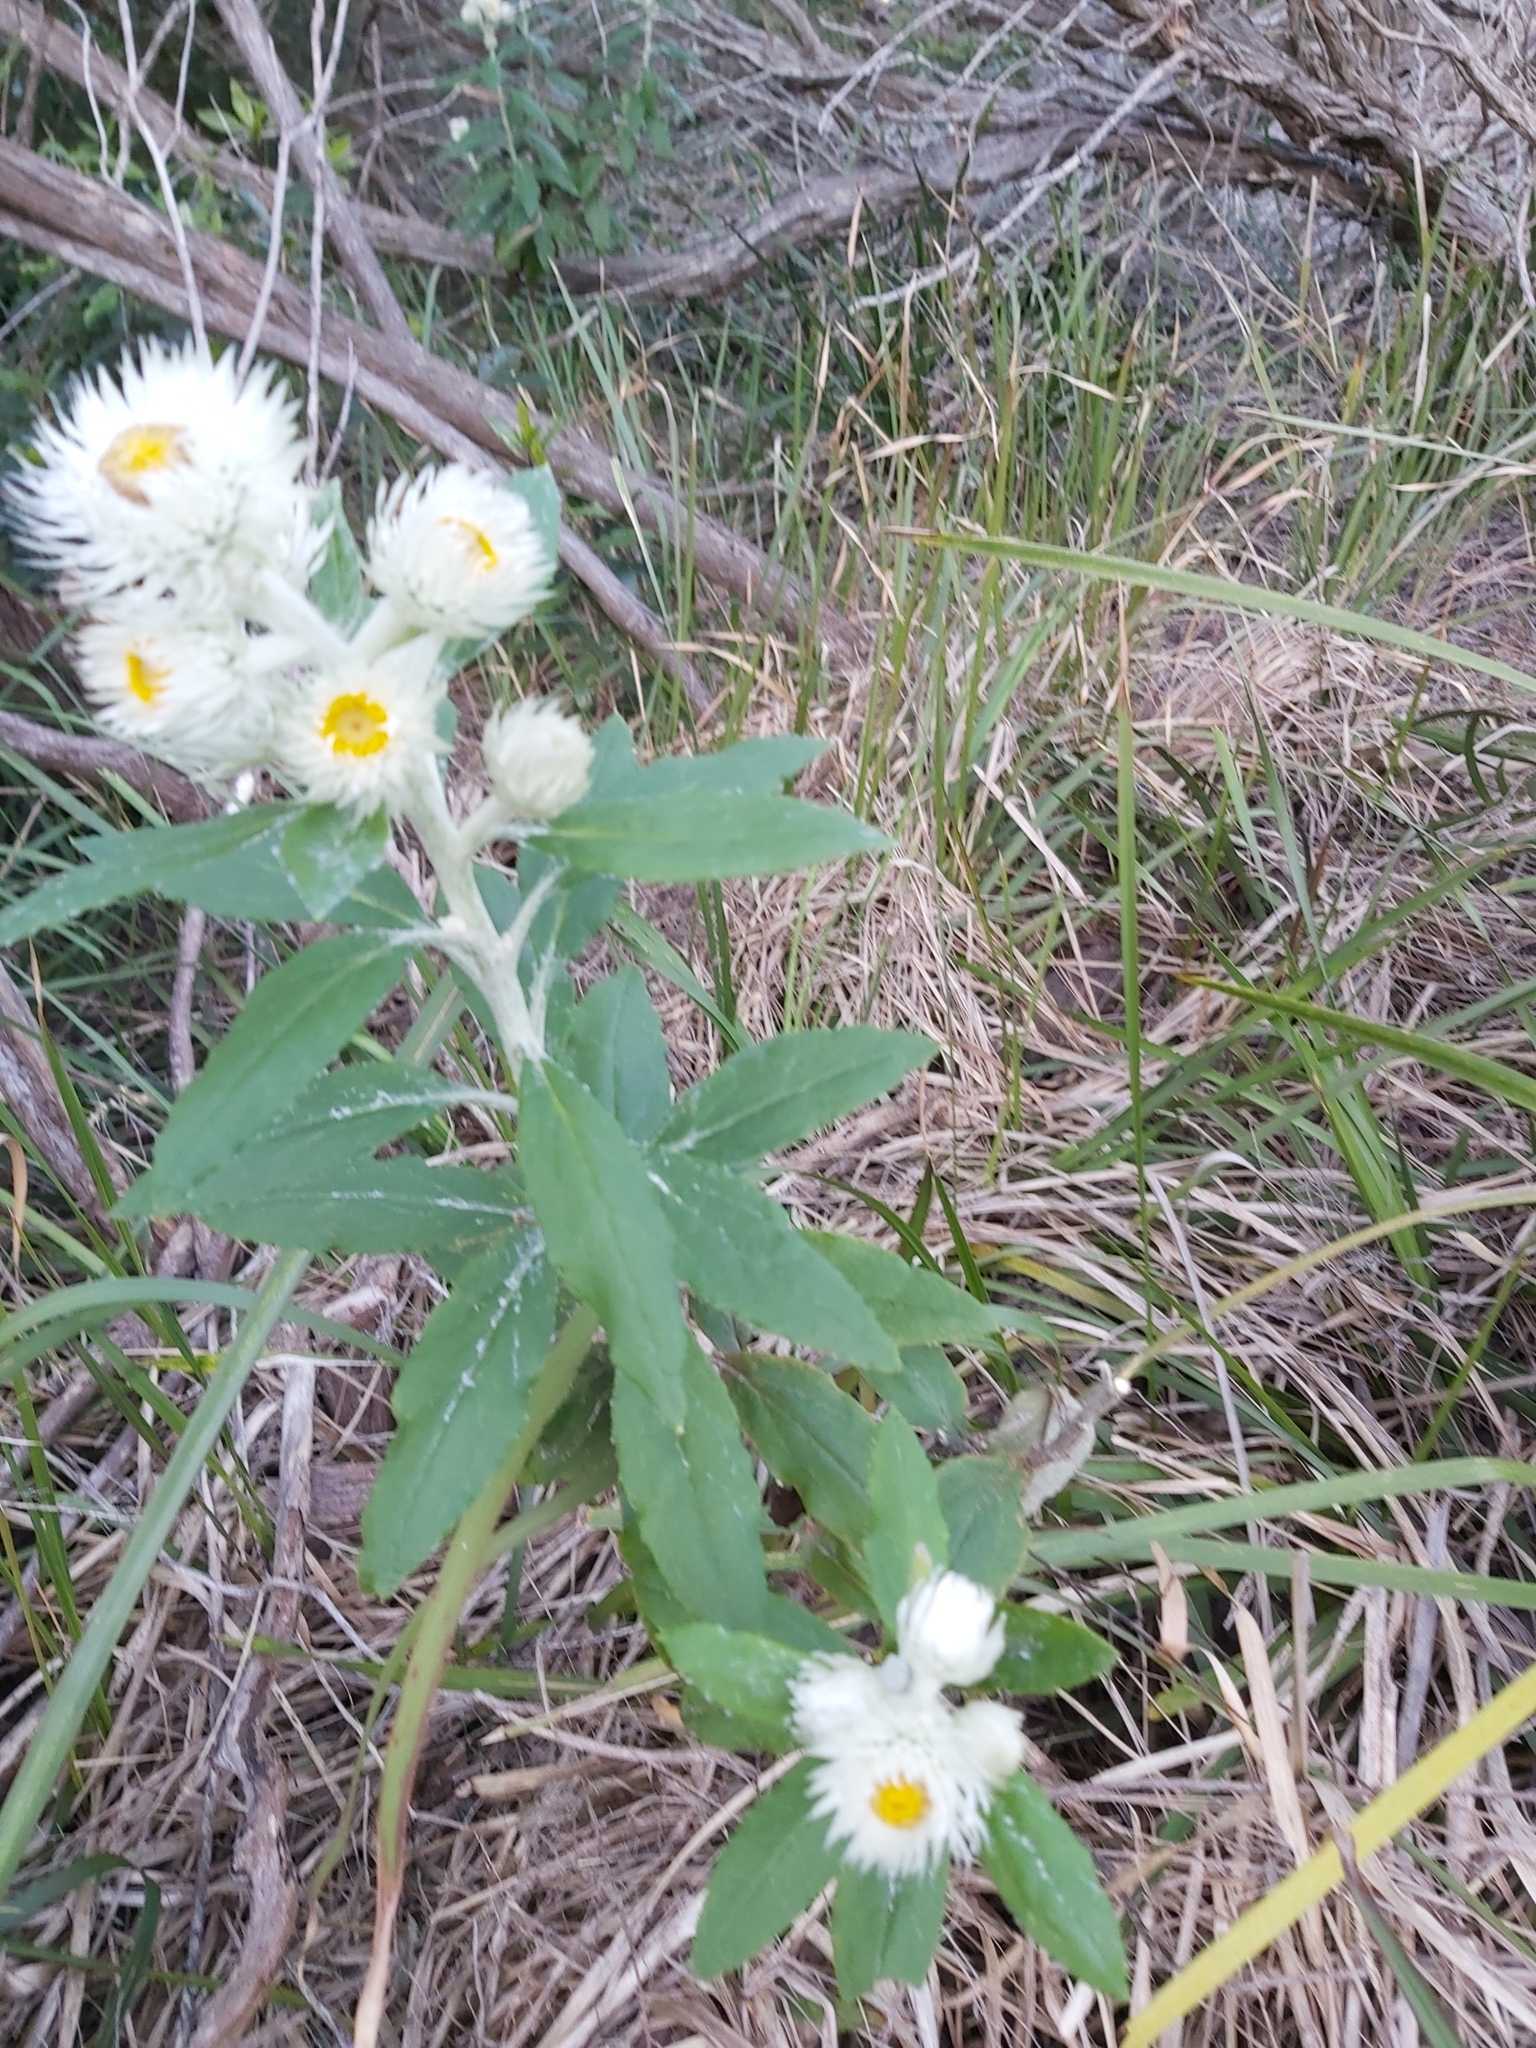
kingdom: Plantae
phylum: Tracheophyta
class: Magnoliopsida
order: Asterales
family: Asteraceae
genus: Leucozoma
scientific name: Leucozoma elatum
